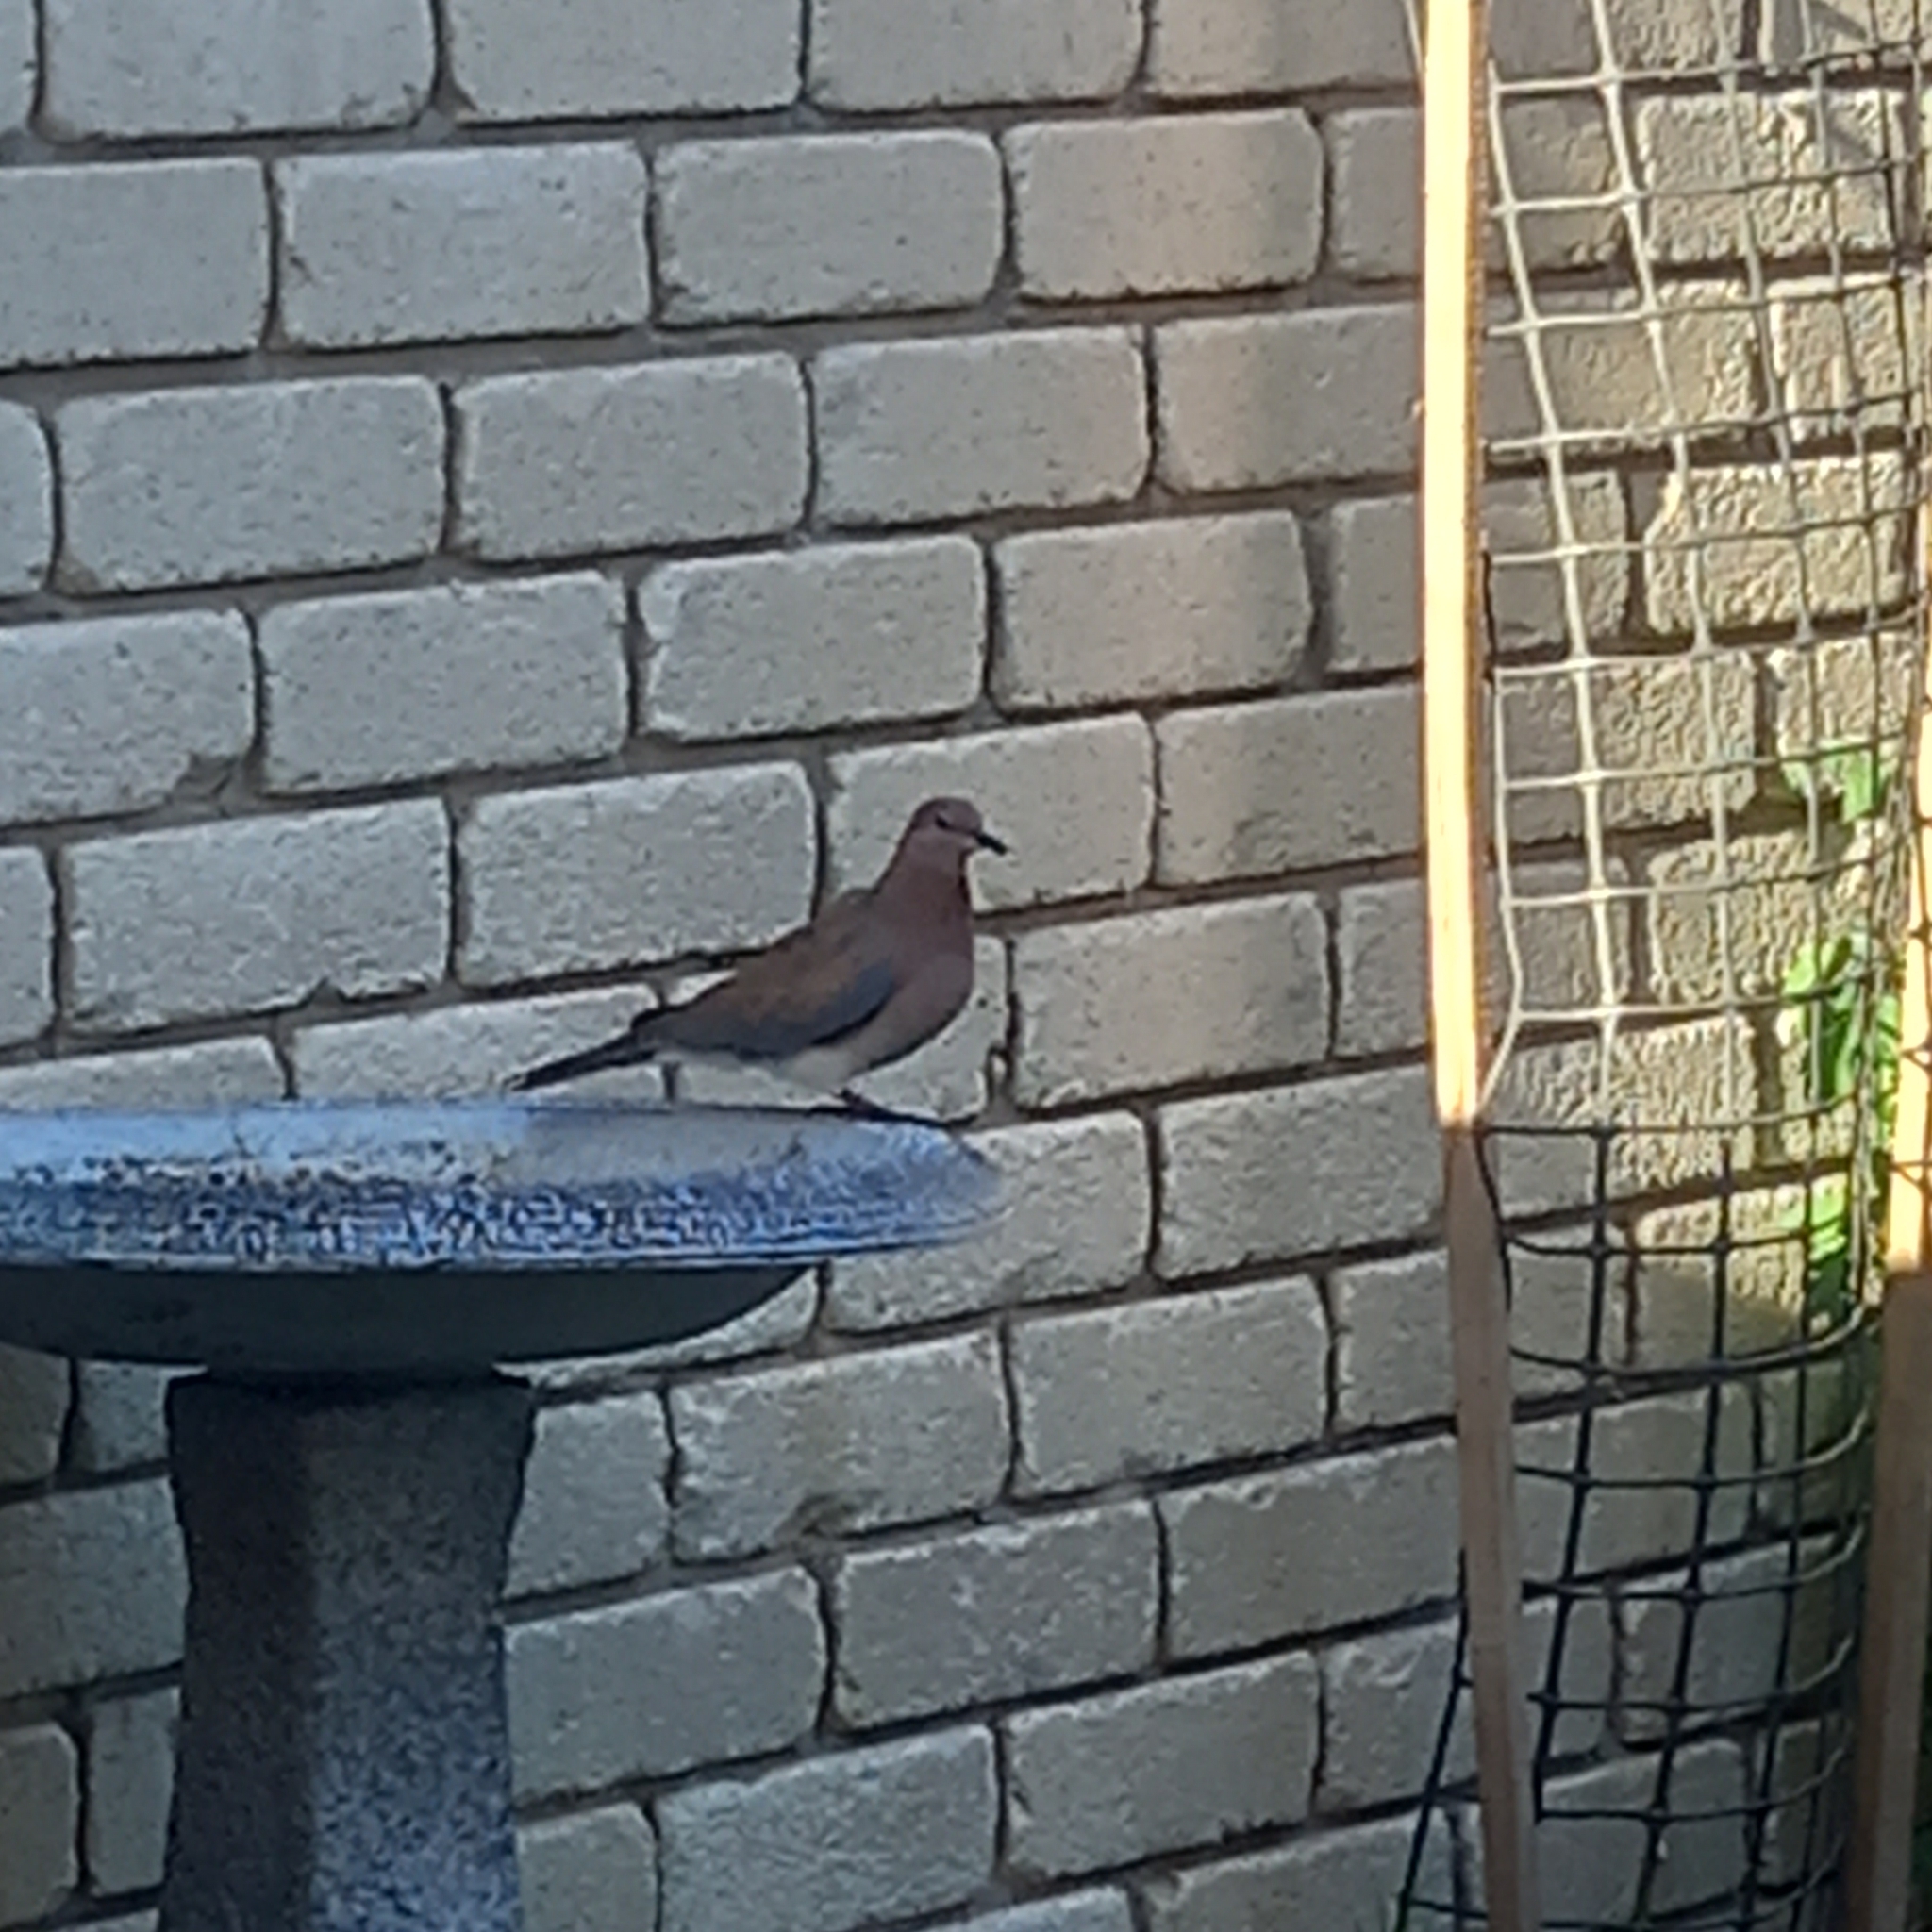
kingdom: Animalia
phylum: Chordata
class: Aves
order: Columbiformes
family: Columbidae
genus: Spilopelia
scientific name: Spilopelia senegalensis
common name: Laughing dove
